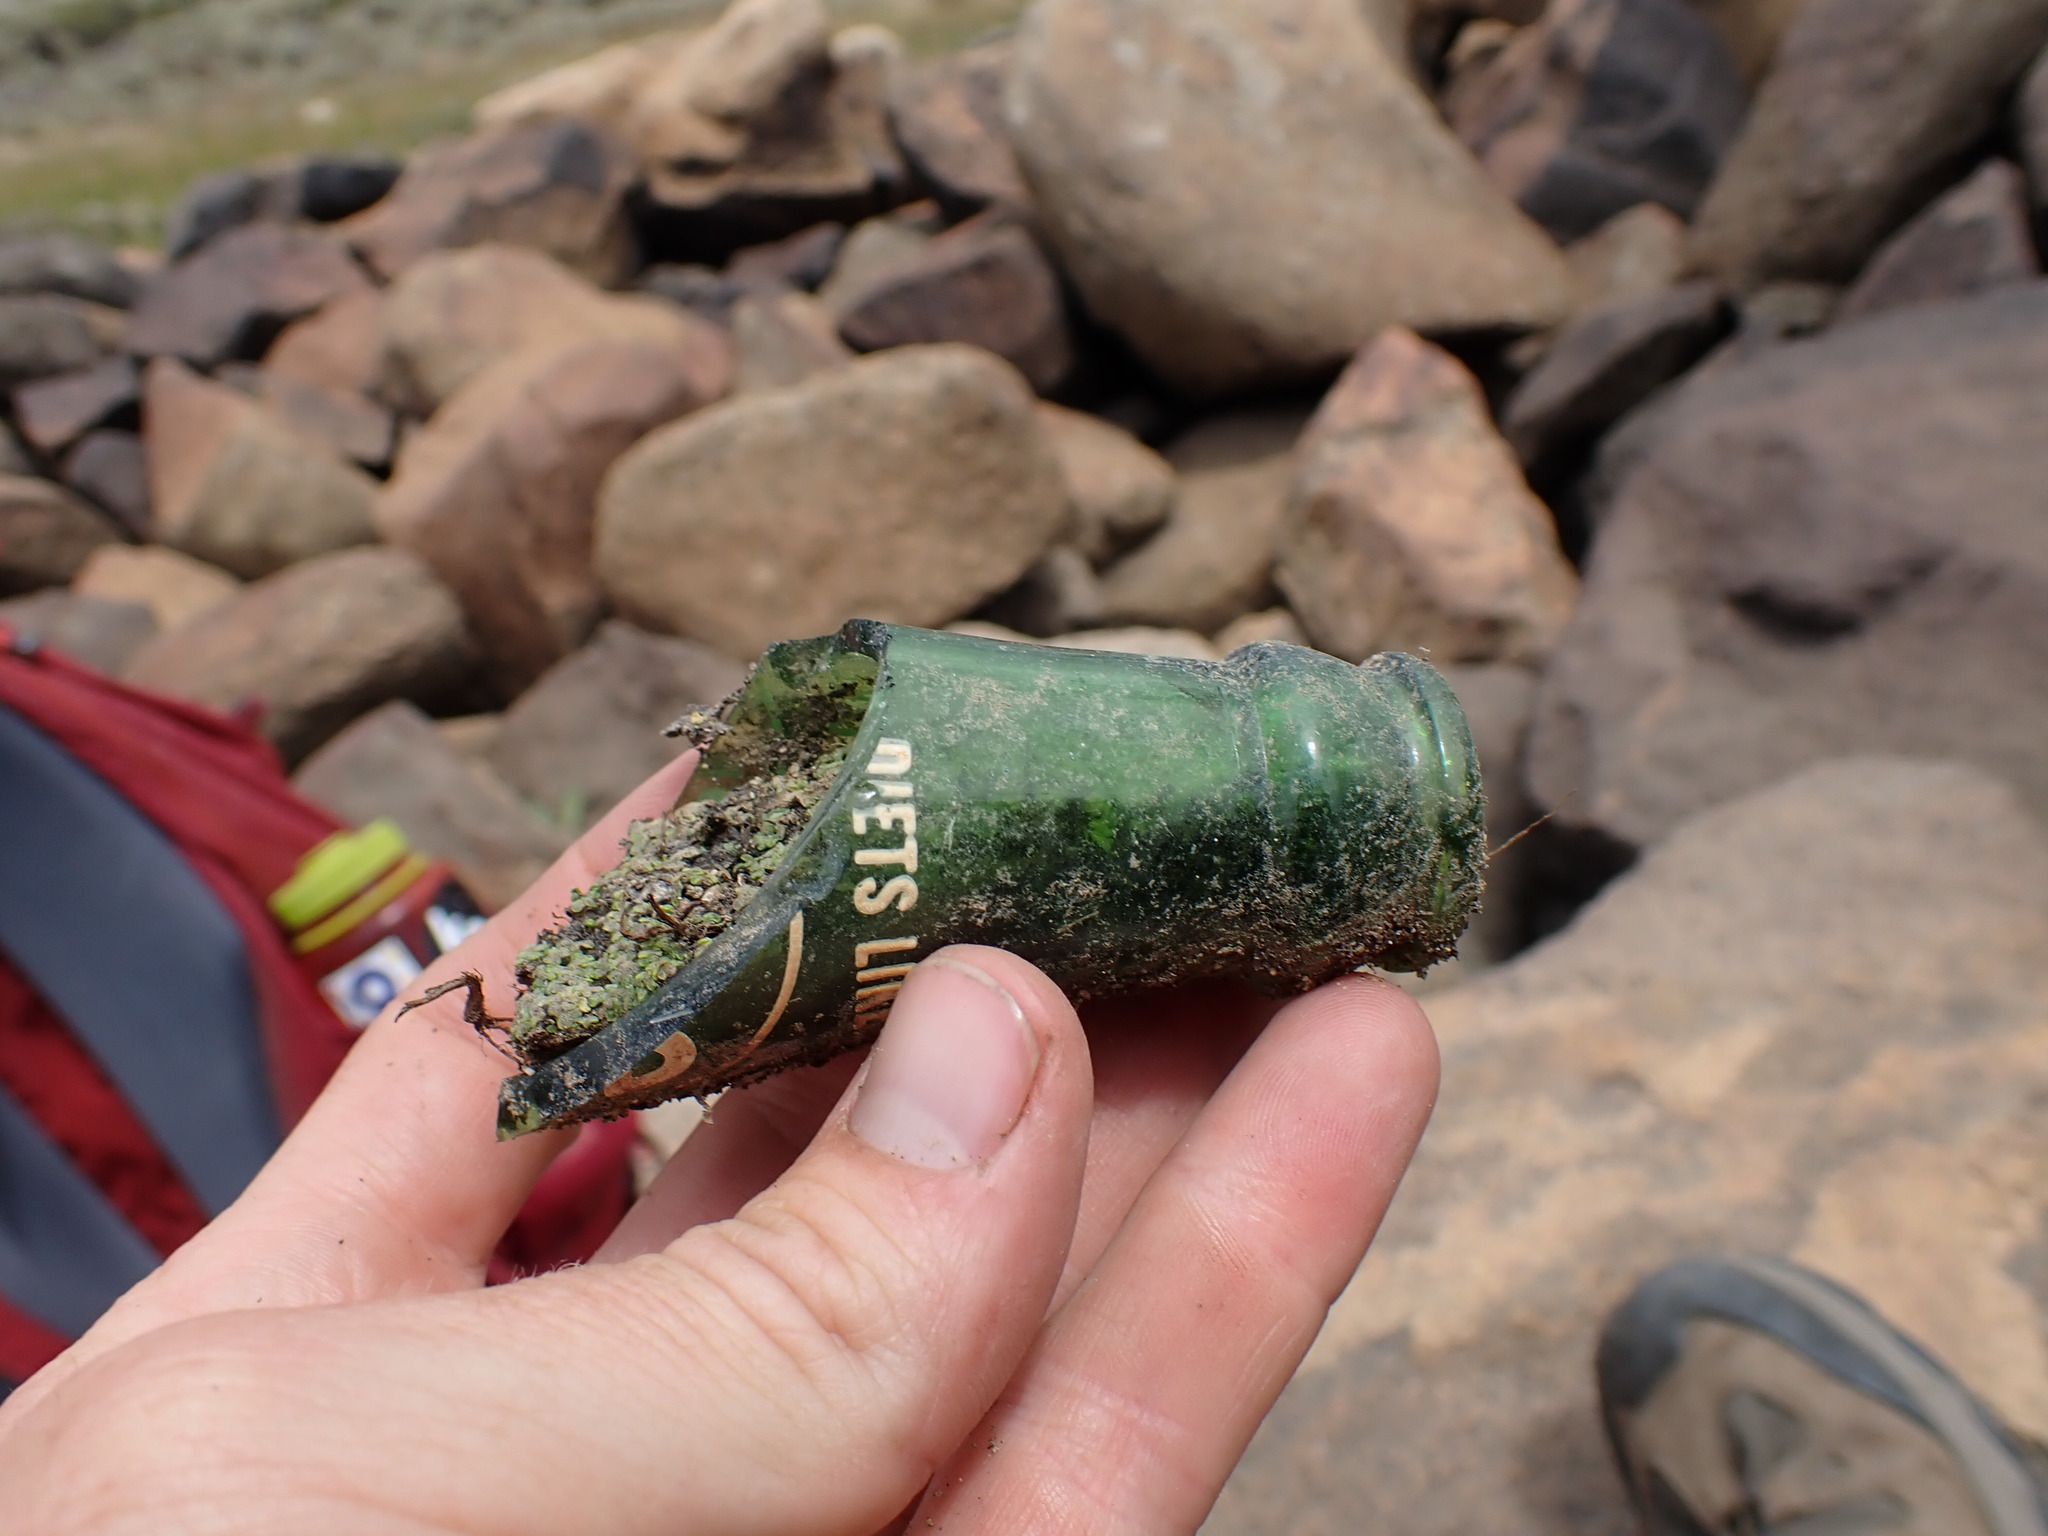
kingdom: Plantae
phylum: Marchantiophyta
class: Marchantiopsida
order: Marchantiales
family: Ricciaceae
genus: Riccia
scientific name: Riccia cavernosa
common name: Cavernous crystalwort
